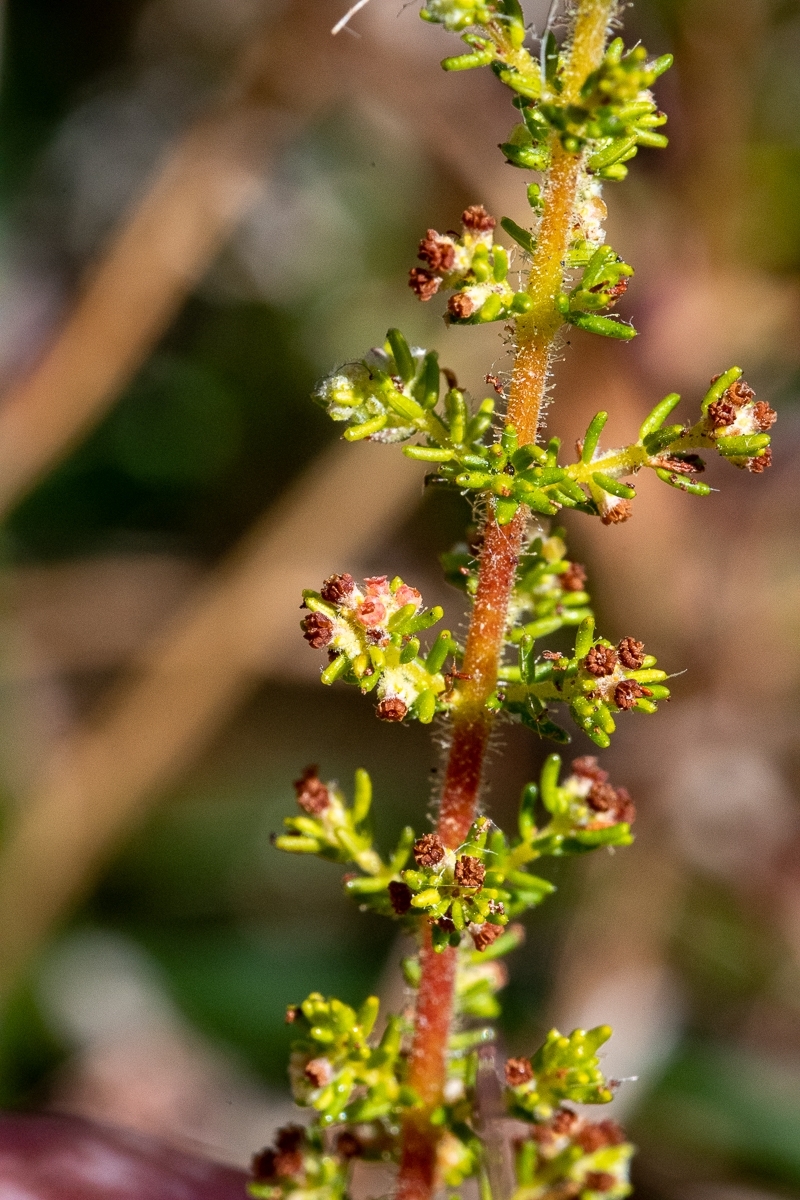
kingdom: Plantae
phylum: Tracheophyta
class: Magnoliopsida
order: Ericales
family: Ericaceae
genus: Erica
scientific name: Erica muscosa
